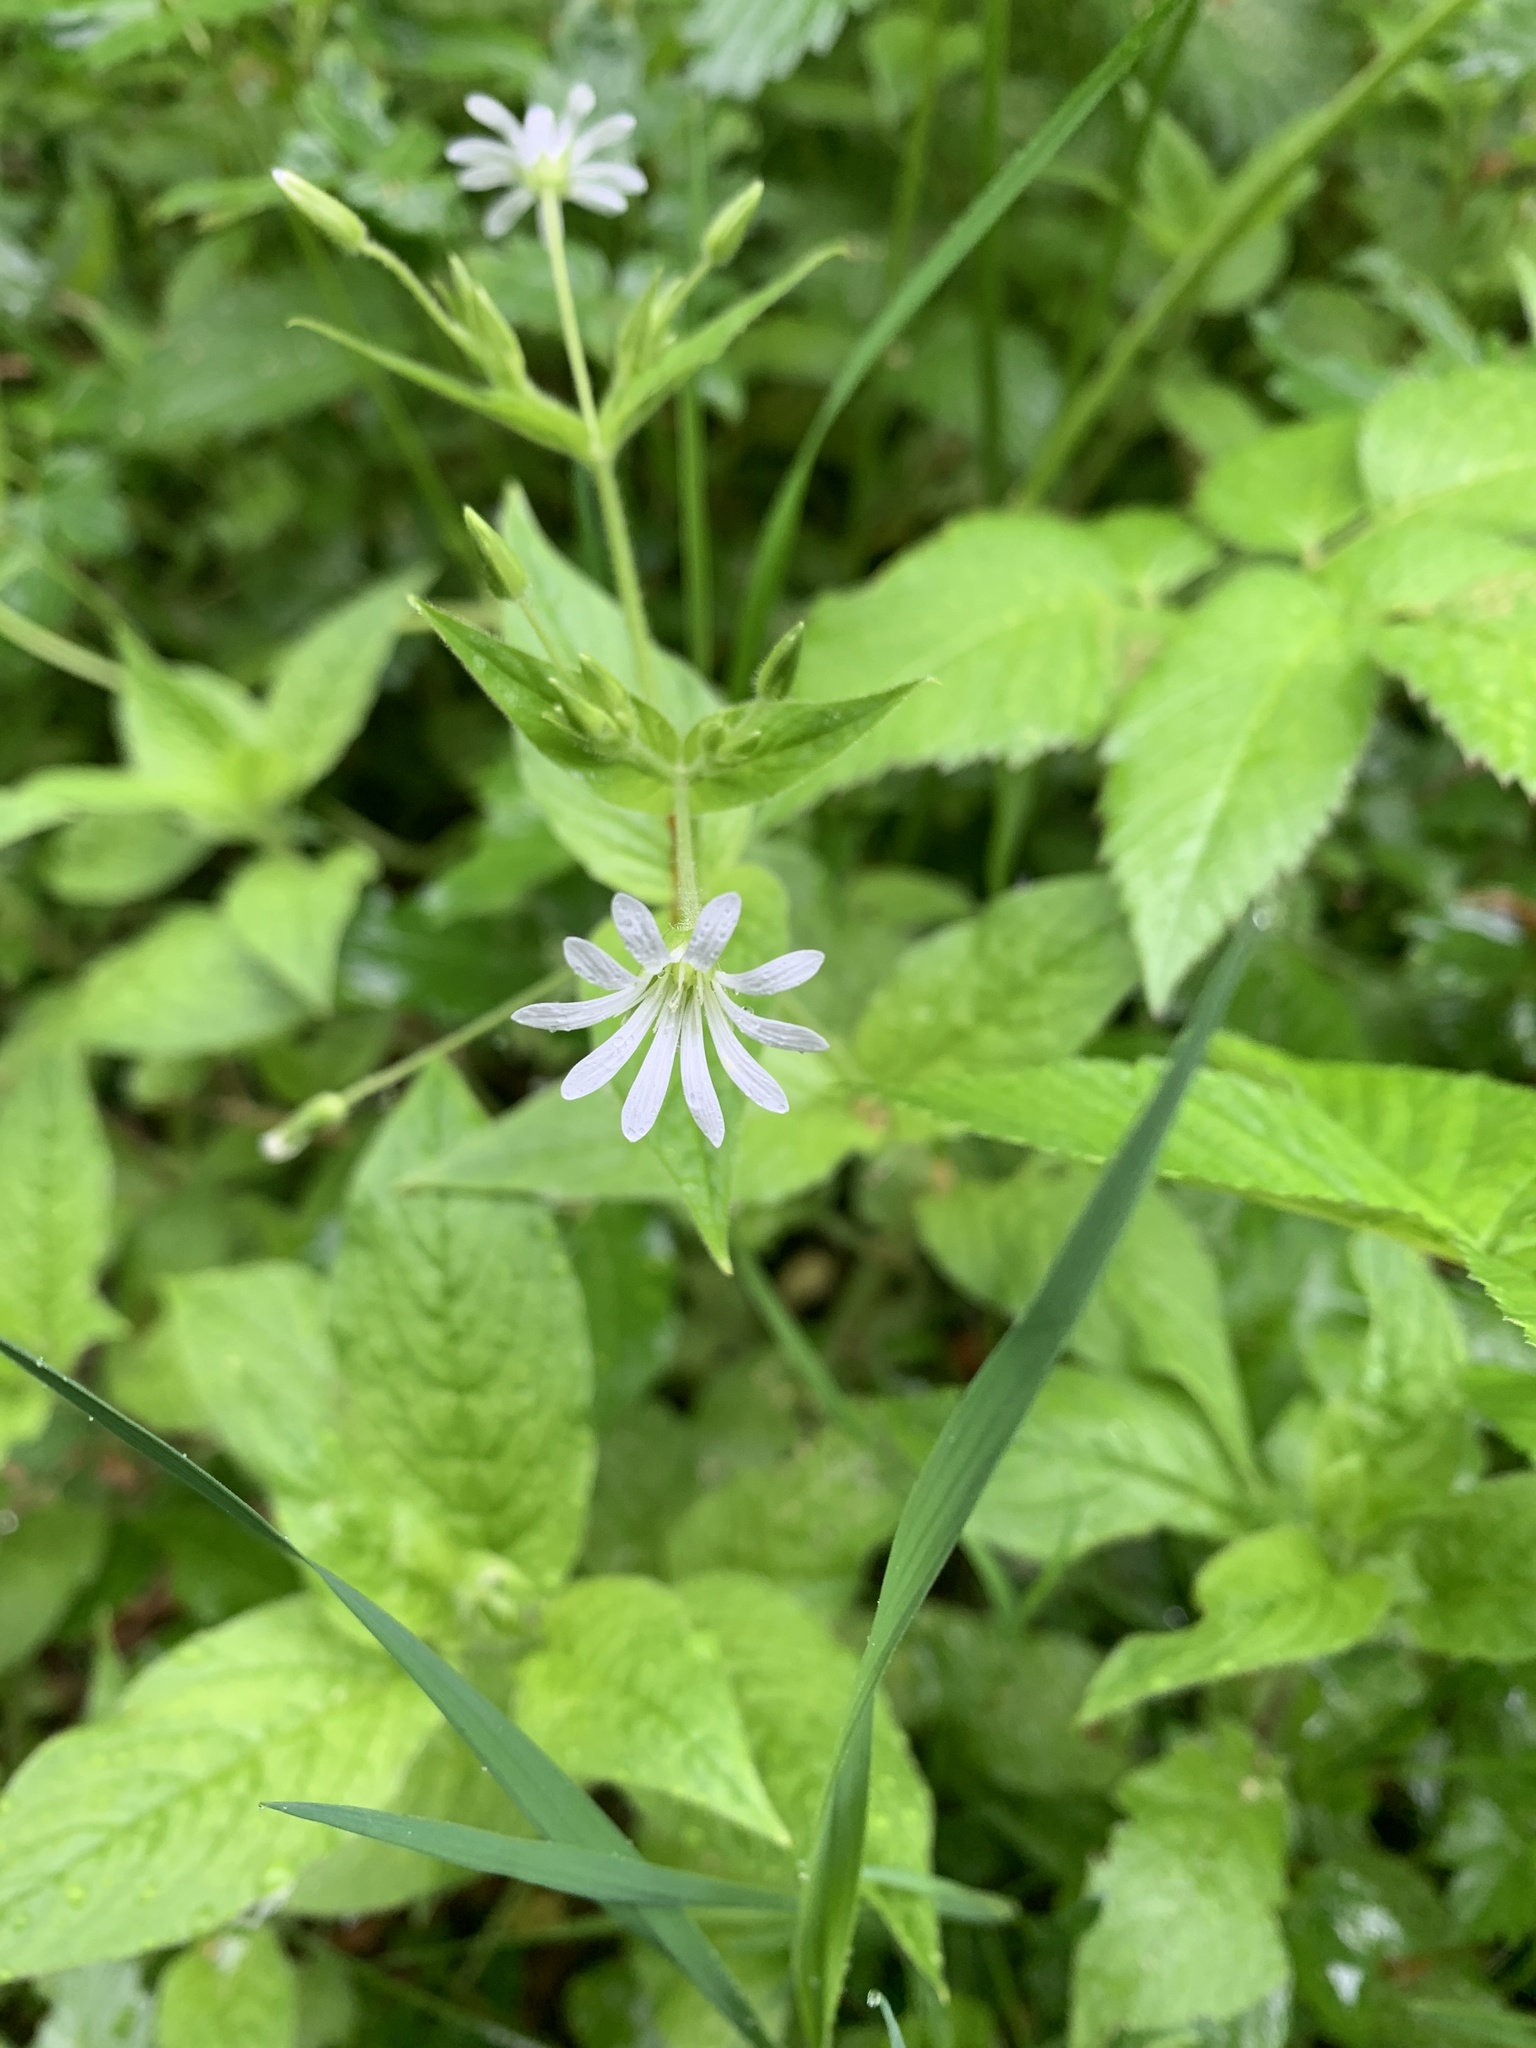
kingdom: Plantae
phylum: Tracheophyta
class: Magnoliopsida
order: Caryophyllales
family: Caryophyllaceae
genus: Stellaria
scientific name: Stellaria nemorum
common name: Wood stitchwort
